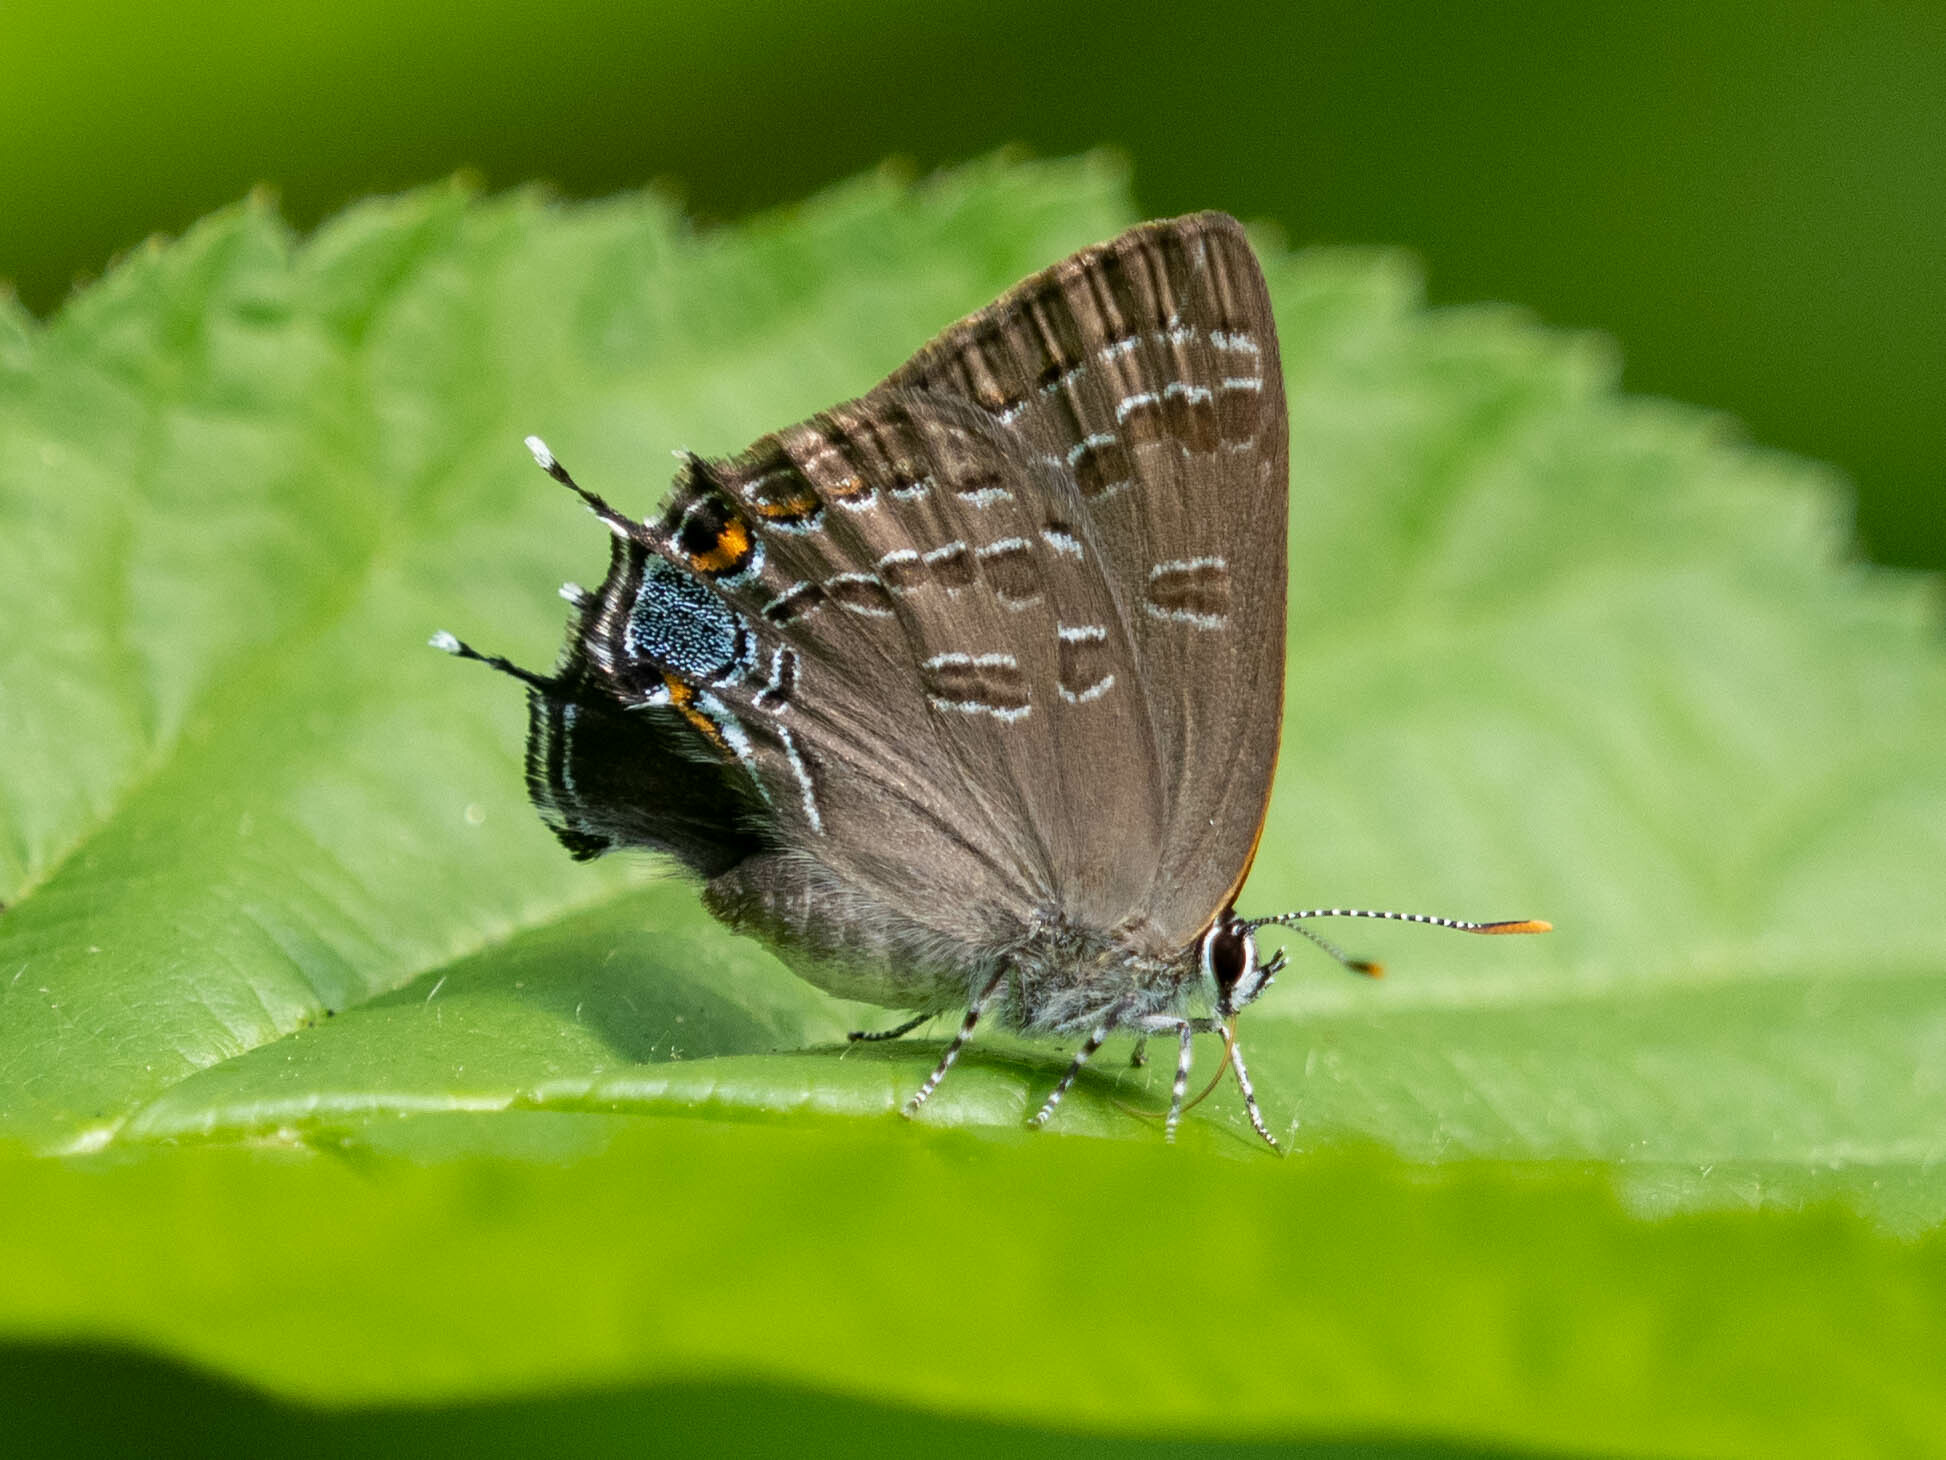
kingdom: Animalia
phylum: Arthropoda
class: Insecta
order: Lepidoptera
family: Lycaenidae
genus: Strymon
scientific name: Strymon caryaevorus
